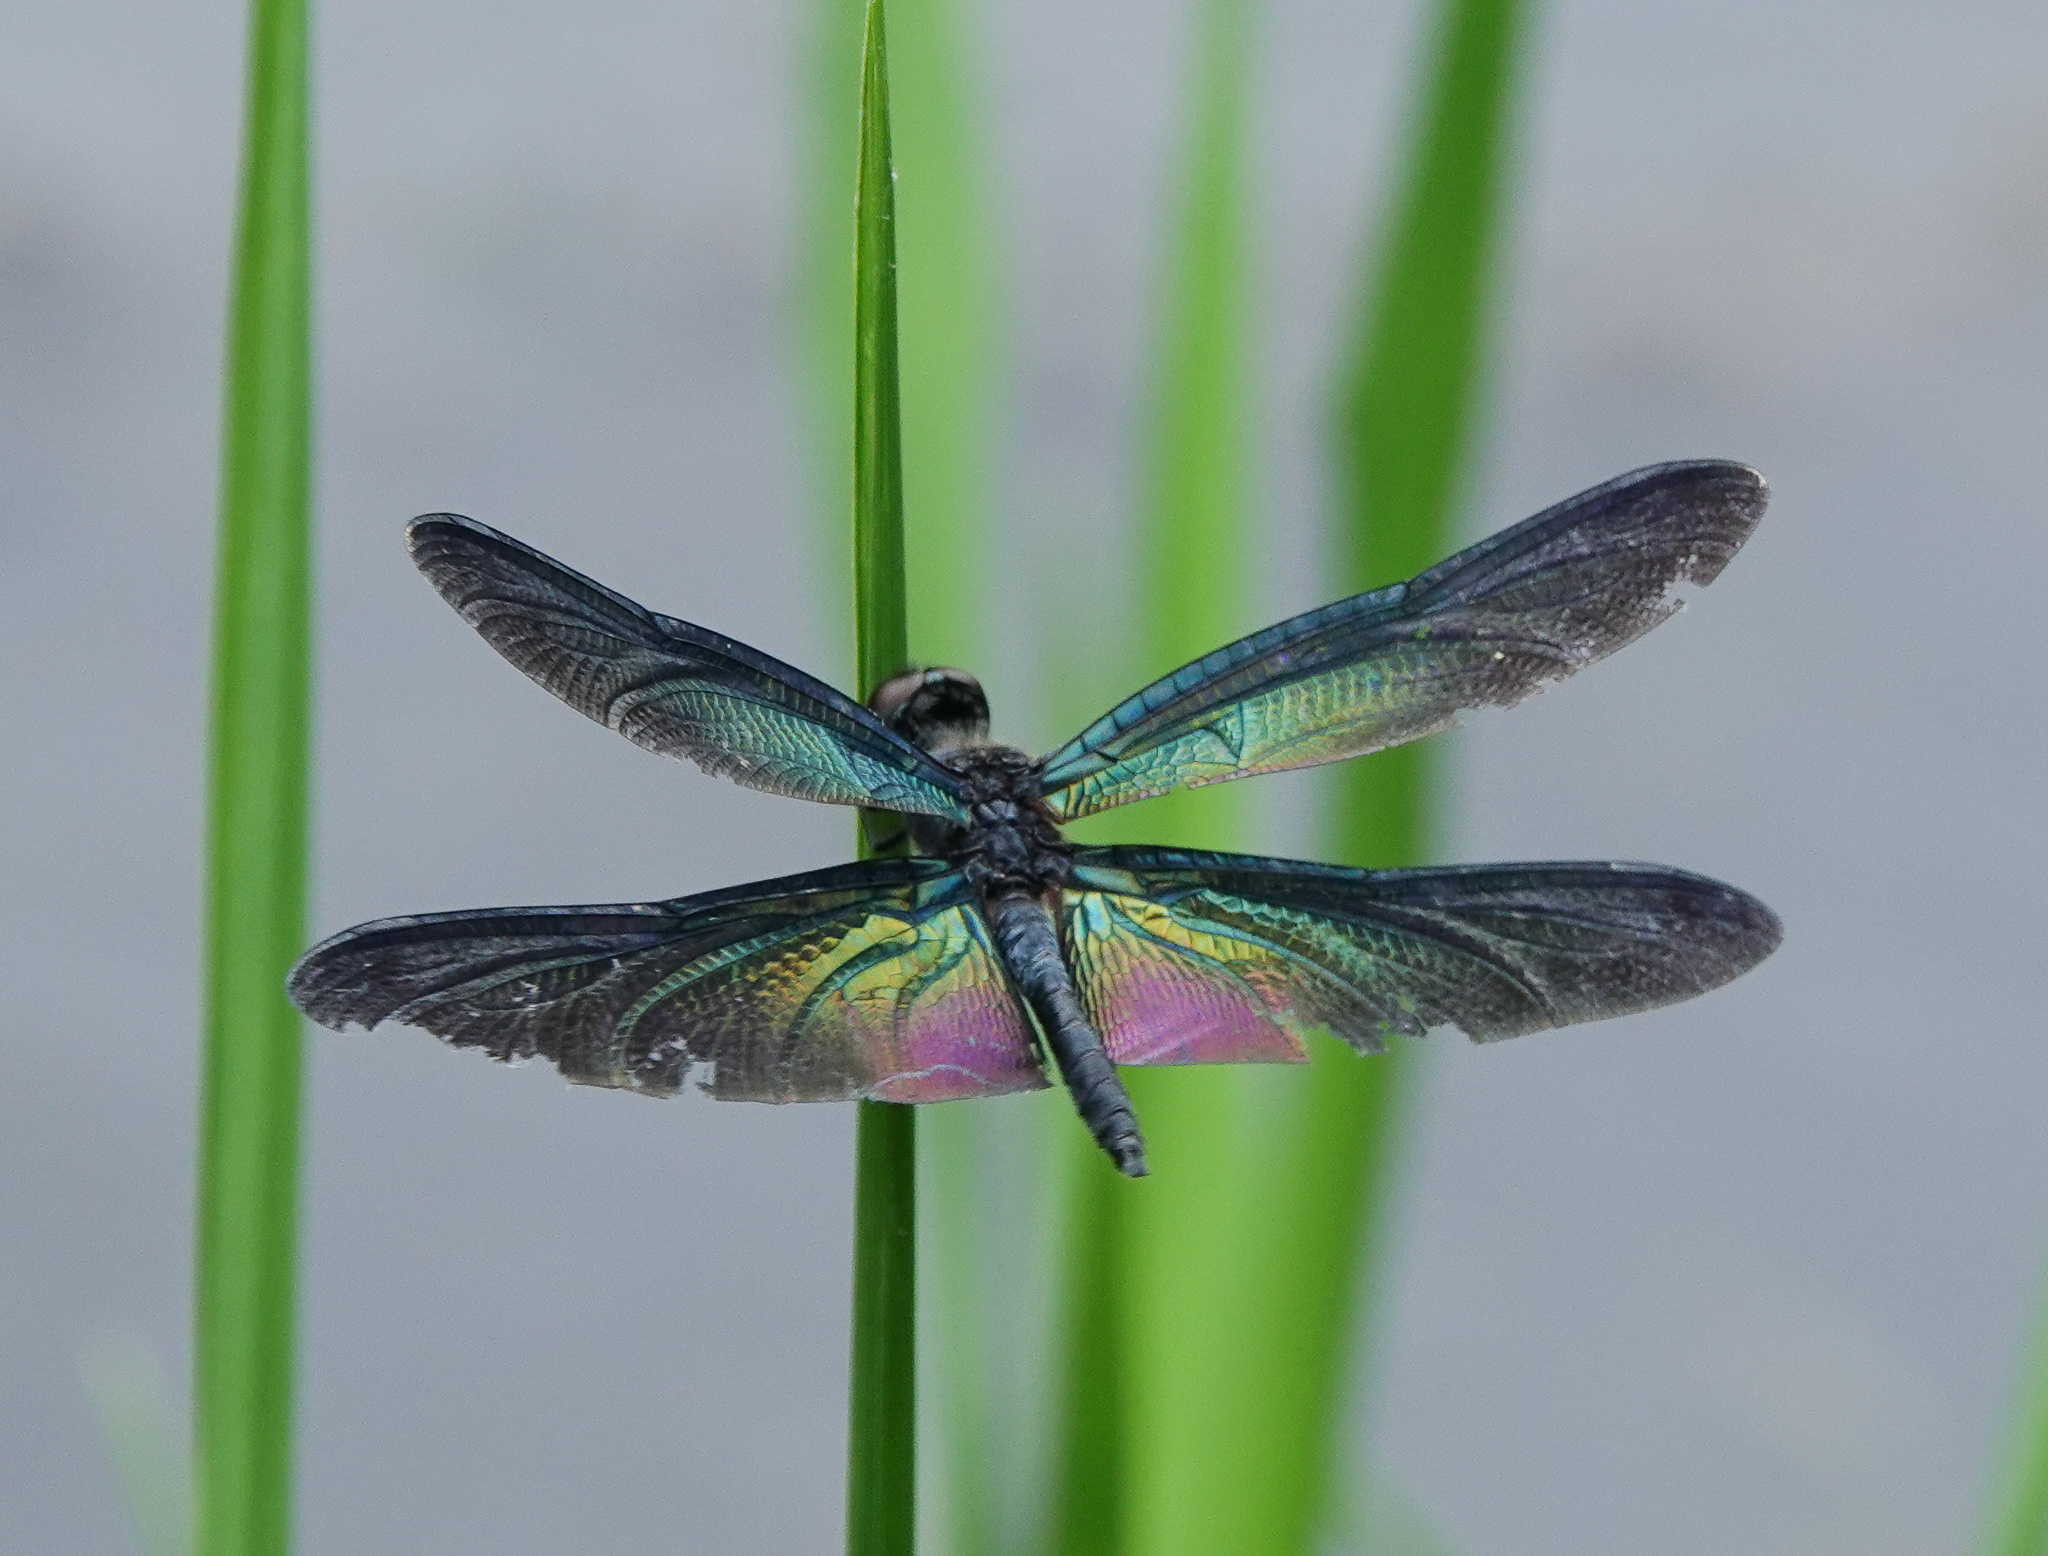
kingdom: Animalia
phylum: Arthropoda
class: Insecta
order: Odonata
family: Libellulidae
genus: Rhyothemis
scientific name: Rhyothemis plutonia
